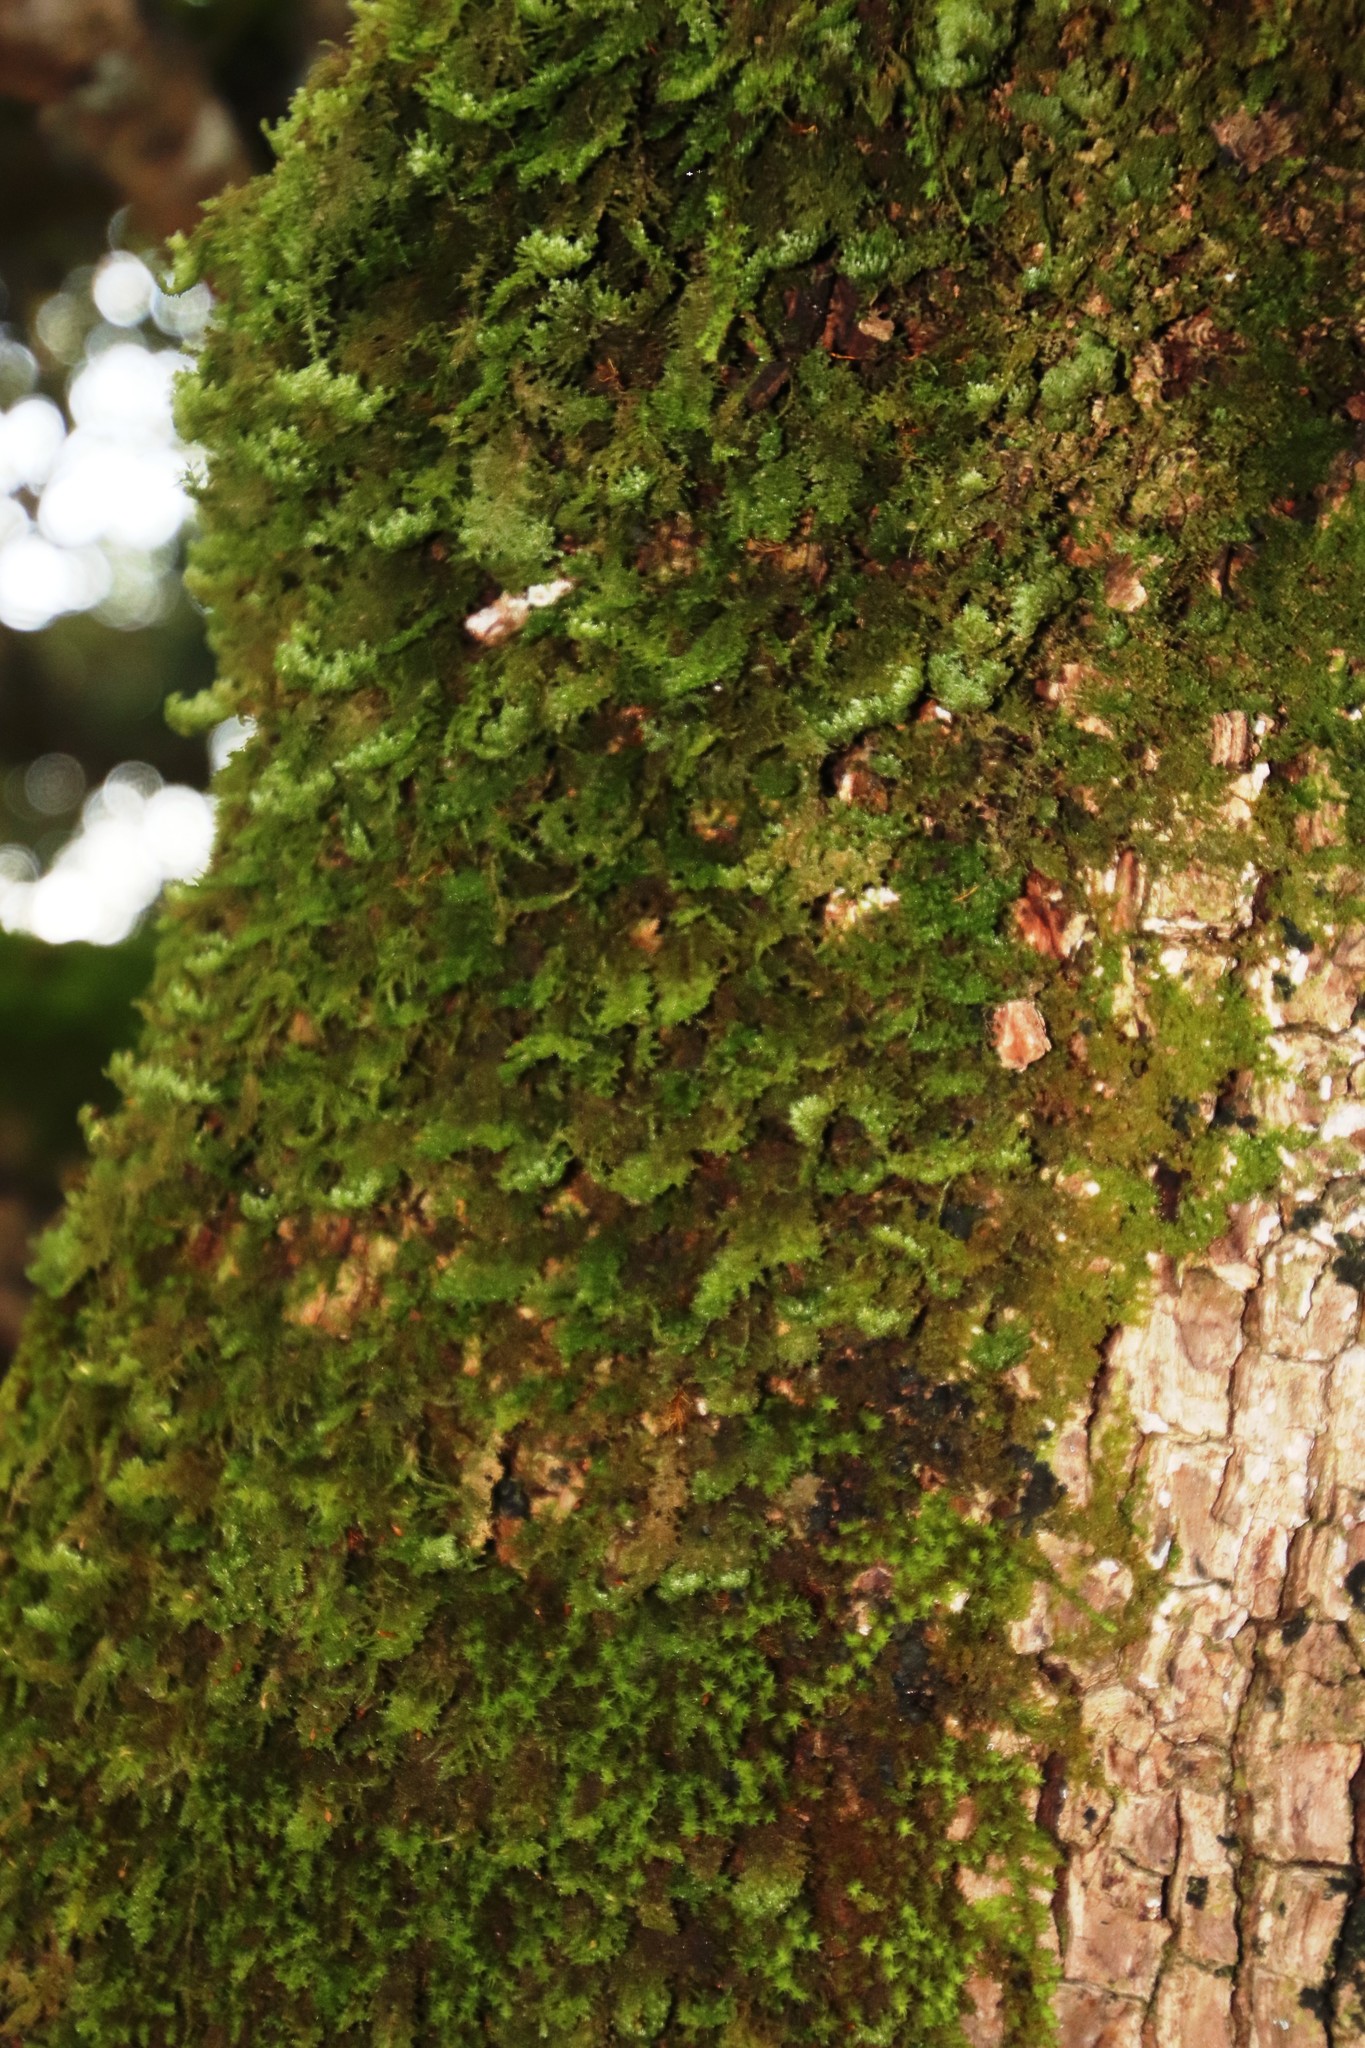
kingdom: Plantae
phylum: Bryophyta
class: Bryopsida
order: Hypnales
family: Neckeraceae
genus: Leptodon
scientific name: Leptodon smithii
